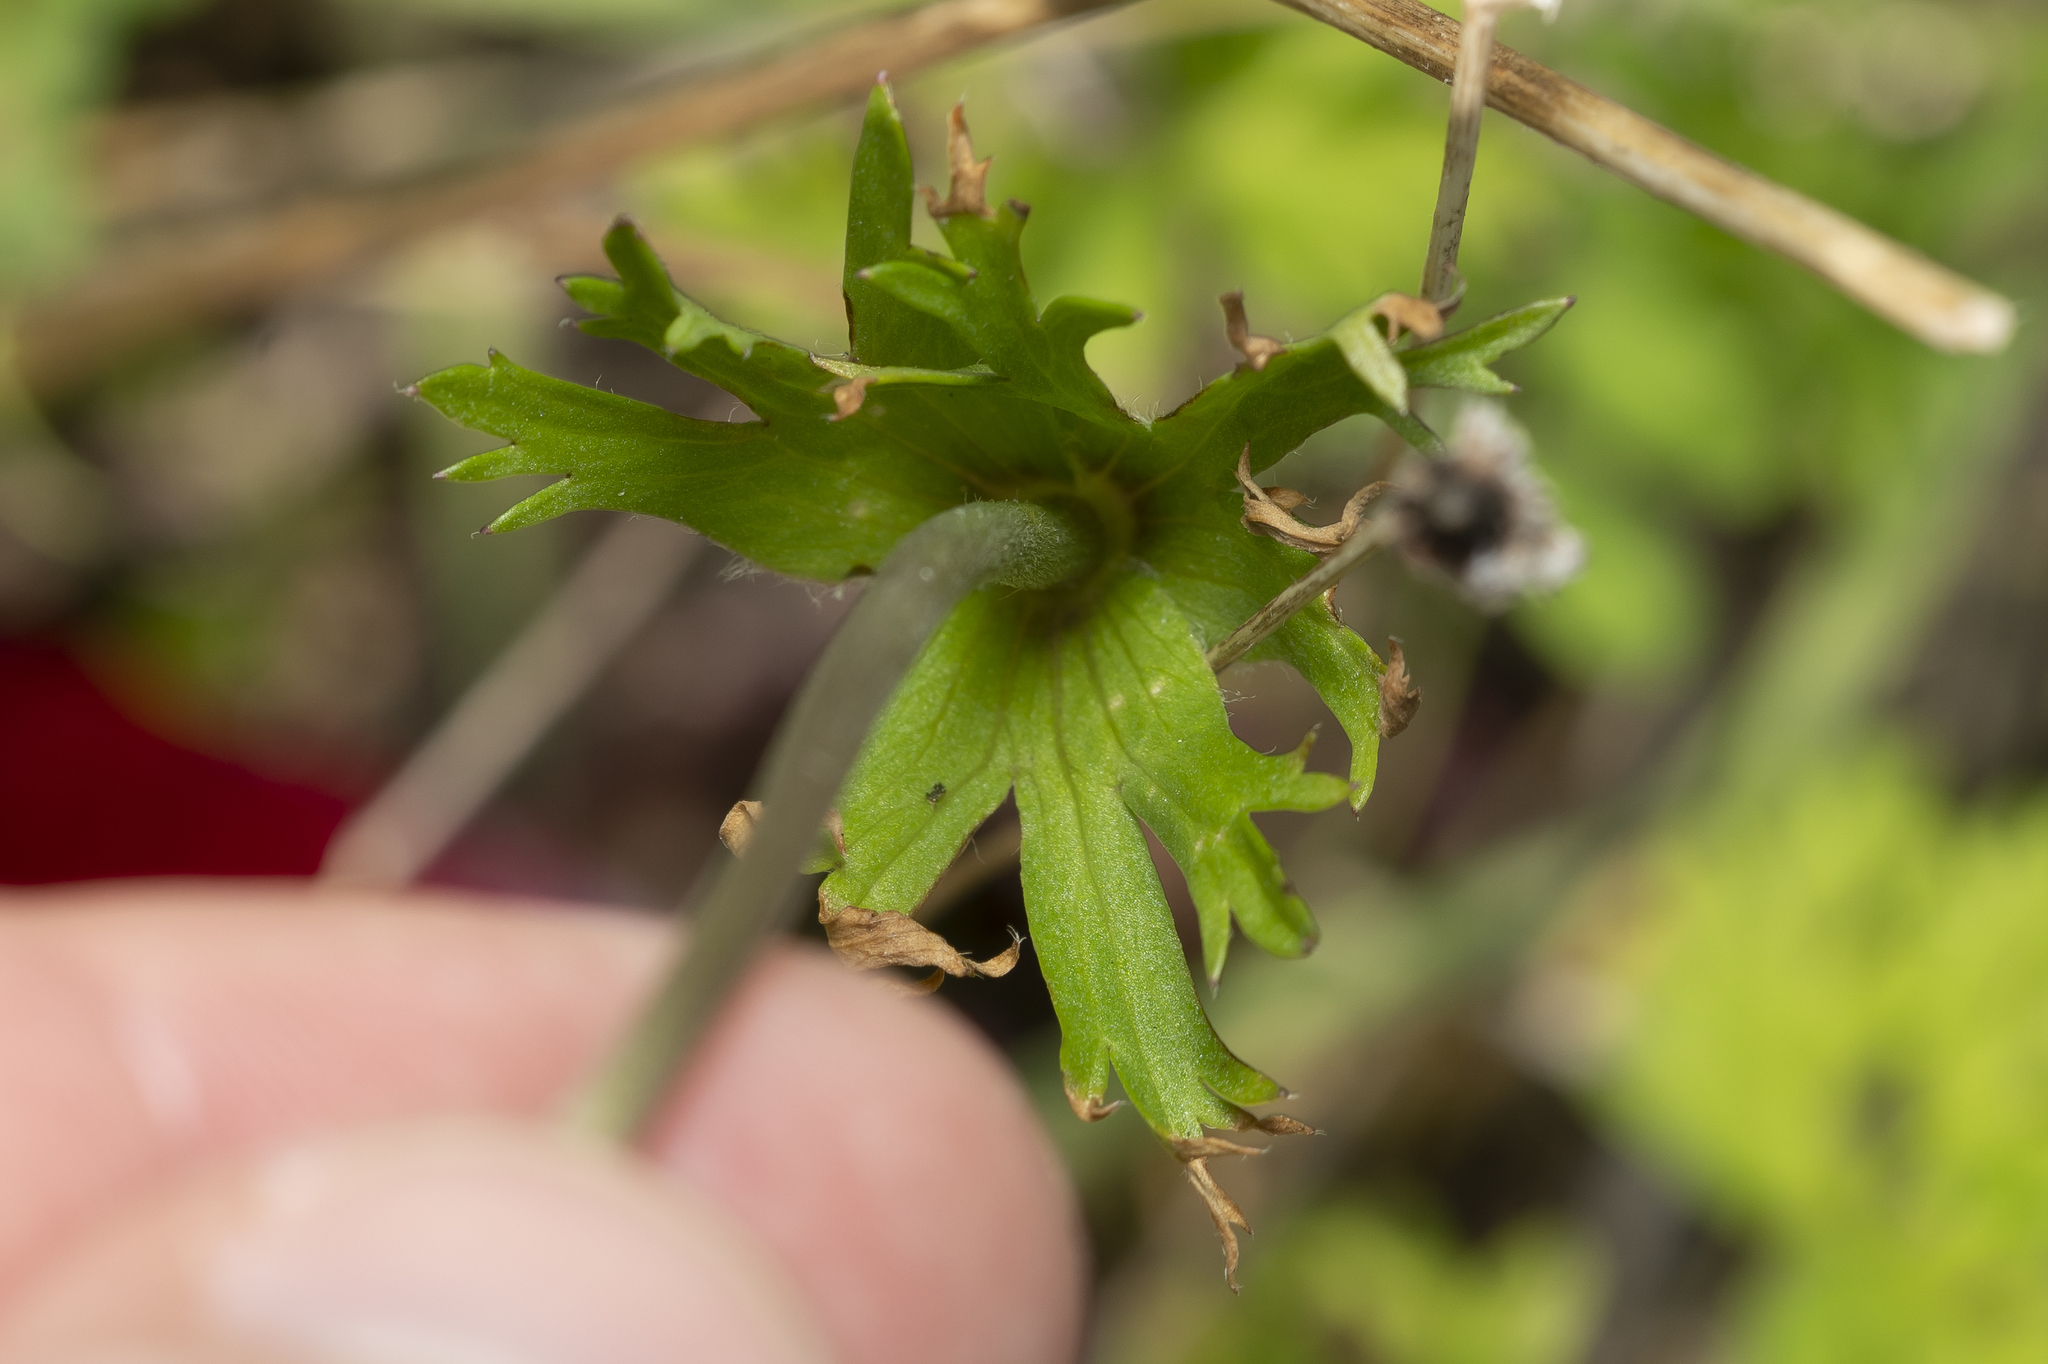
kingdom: Plantae
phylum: Tracheophyta
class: Magnoliopsida
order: Ranunculales
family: Ranunculaceae
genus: Anemone
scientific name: Anemone coronaria
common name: Poppy anemone
